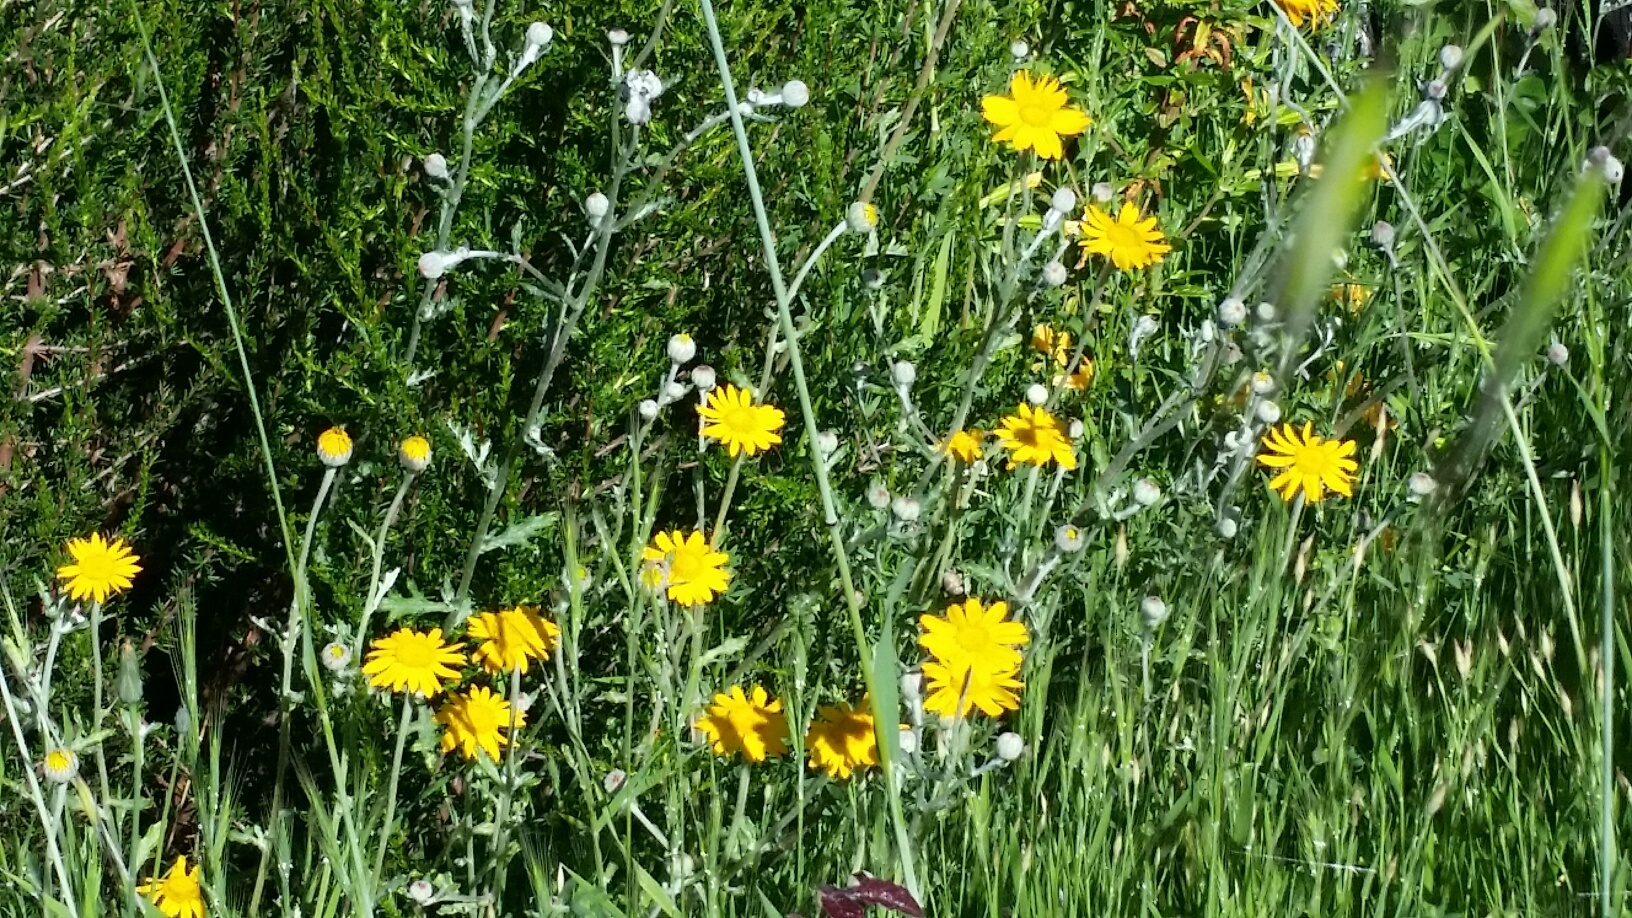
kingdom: Plantae
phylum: Tracheophyta
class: Magnoliopsida
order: Asterales
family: Asteraceae
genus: Eriophyllum
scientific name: Eriophyllum lanatum
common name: Common woolly-sunflower
